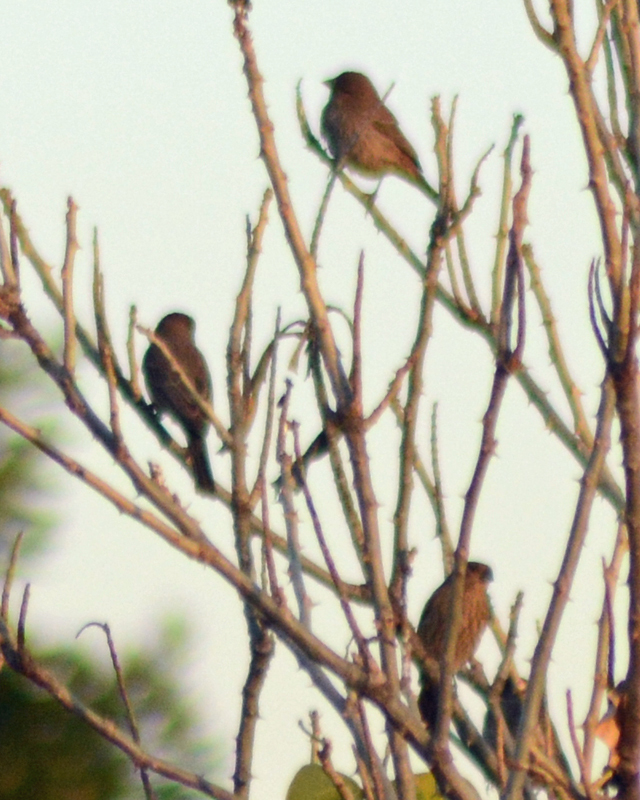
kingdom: Animalia
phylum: Chordata
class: Aves
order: Passeriformes
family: Fringillidae
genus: Haemorhous
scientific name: Haemorhous mexicanus
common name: House finch
